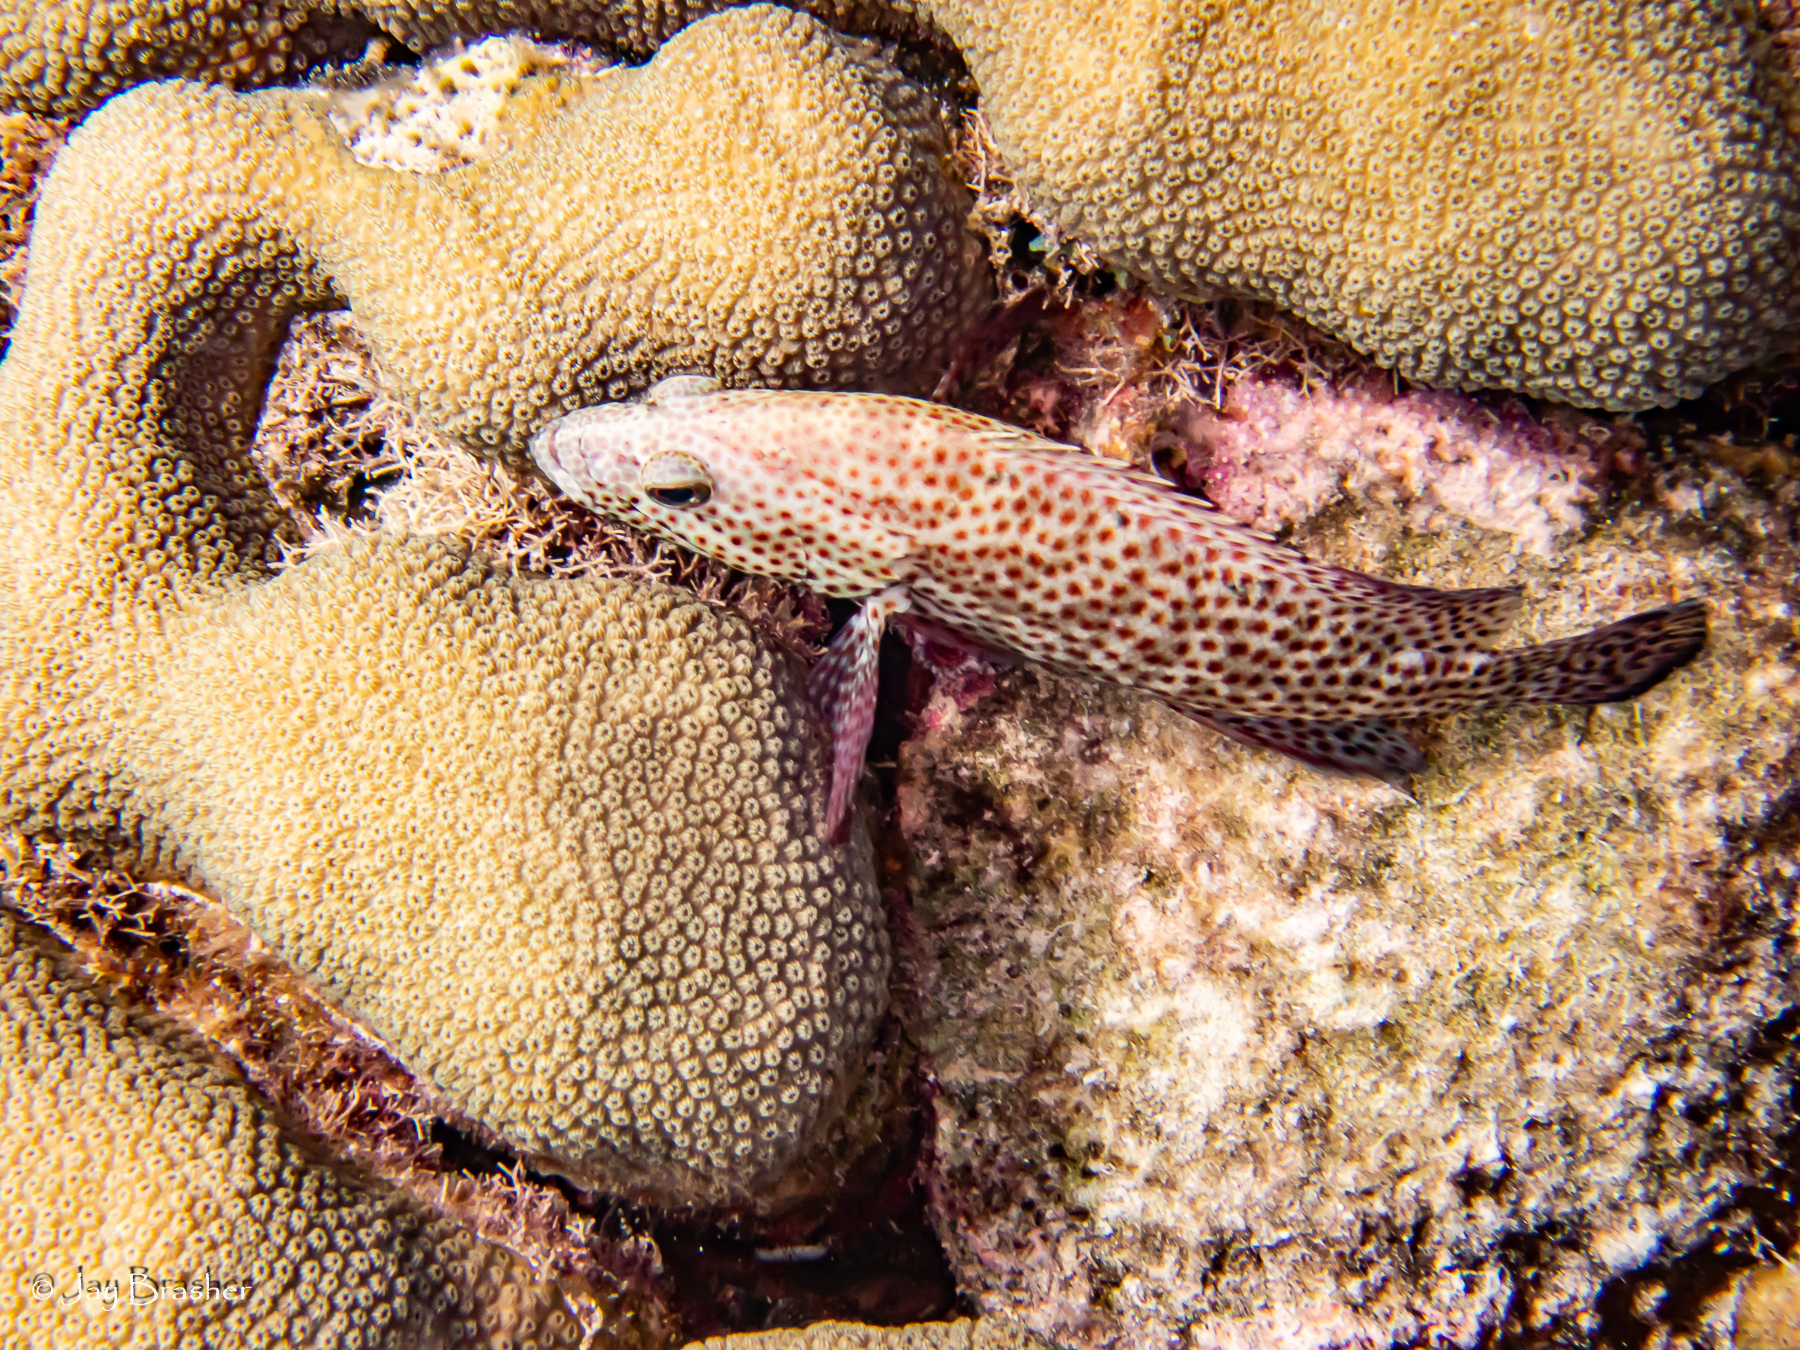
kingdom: Animalia
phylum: Chordata
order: Perciformes
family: Serranidae
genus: Cephalopholis
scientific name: Cephalopholis cruentata
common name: Graysby
